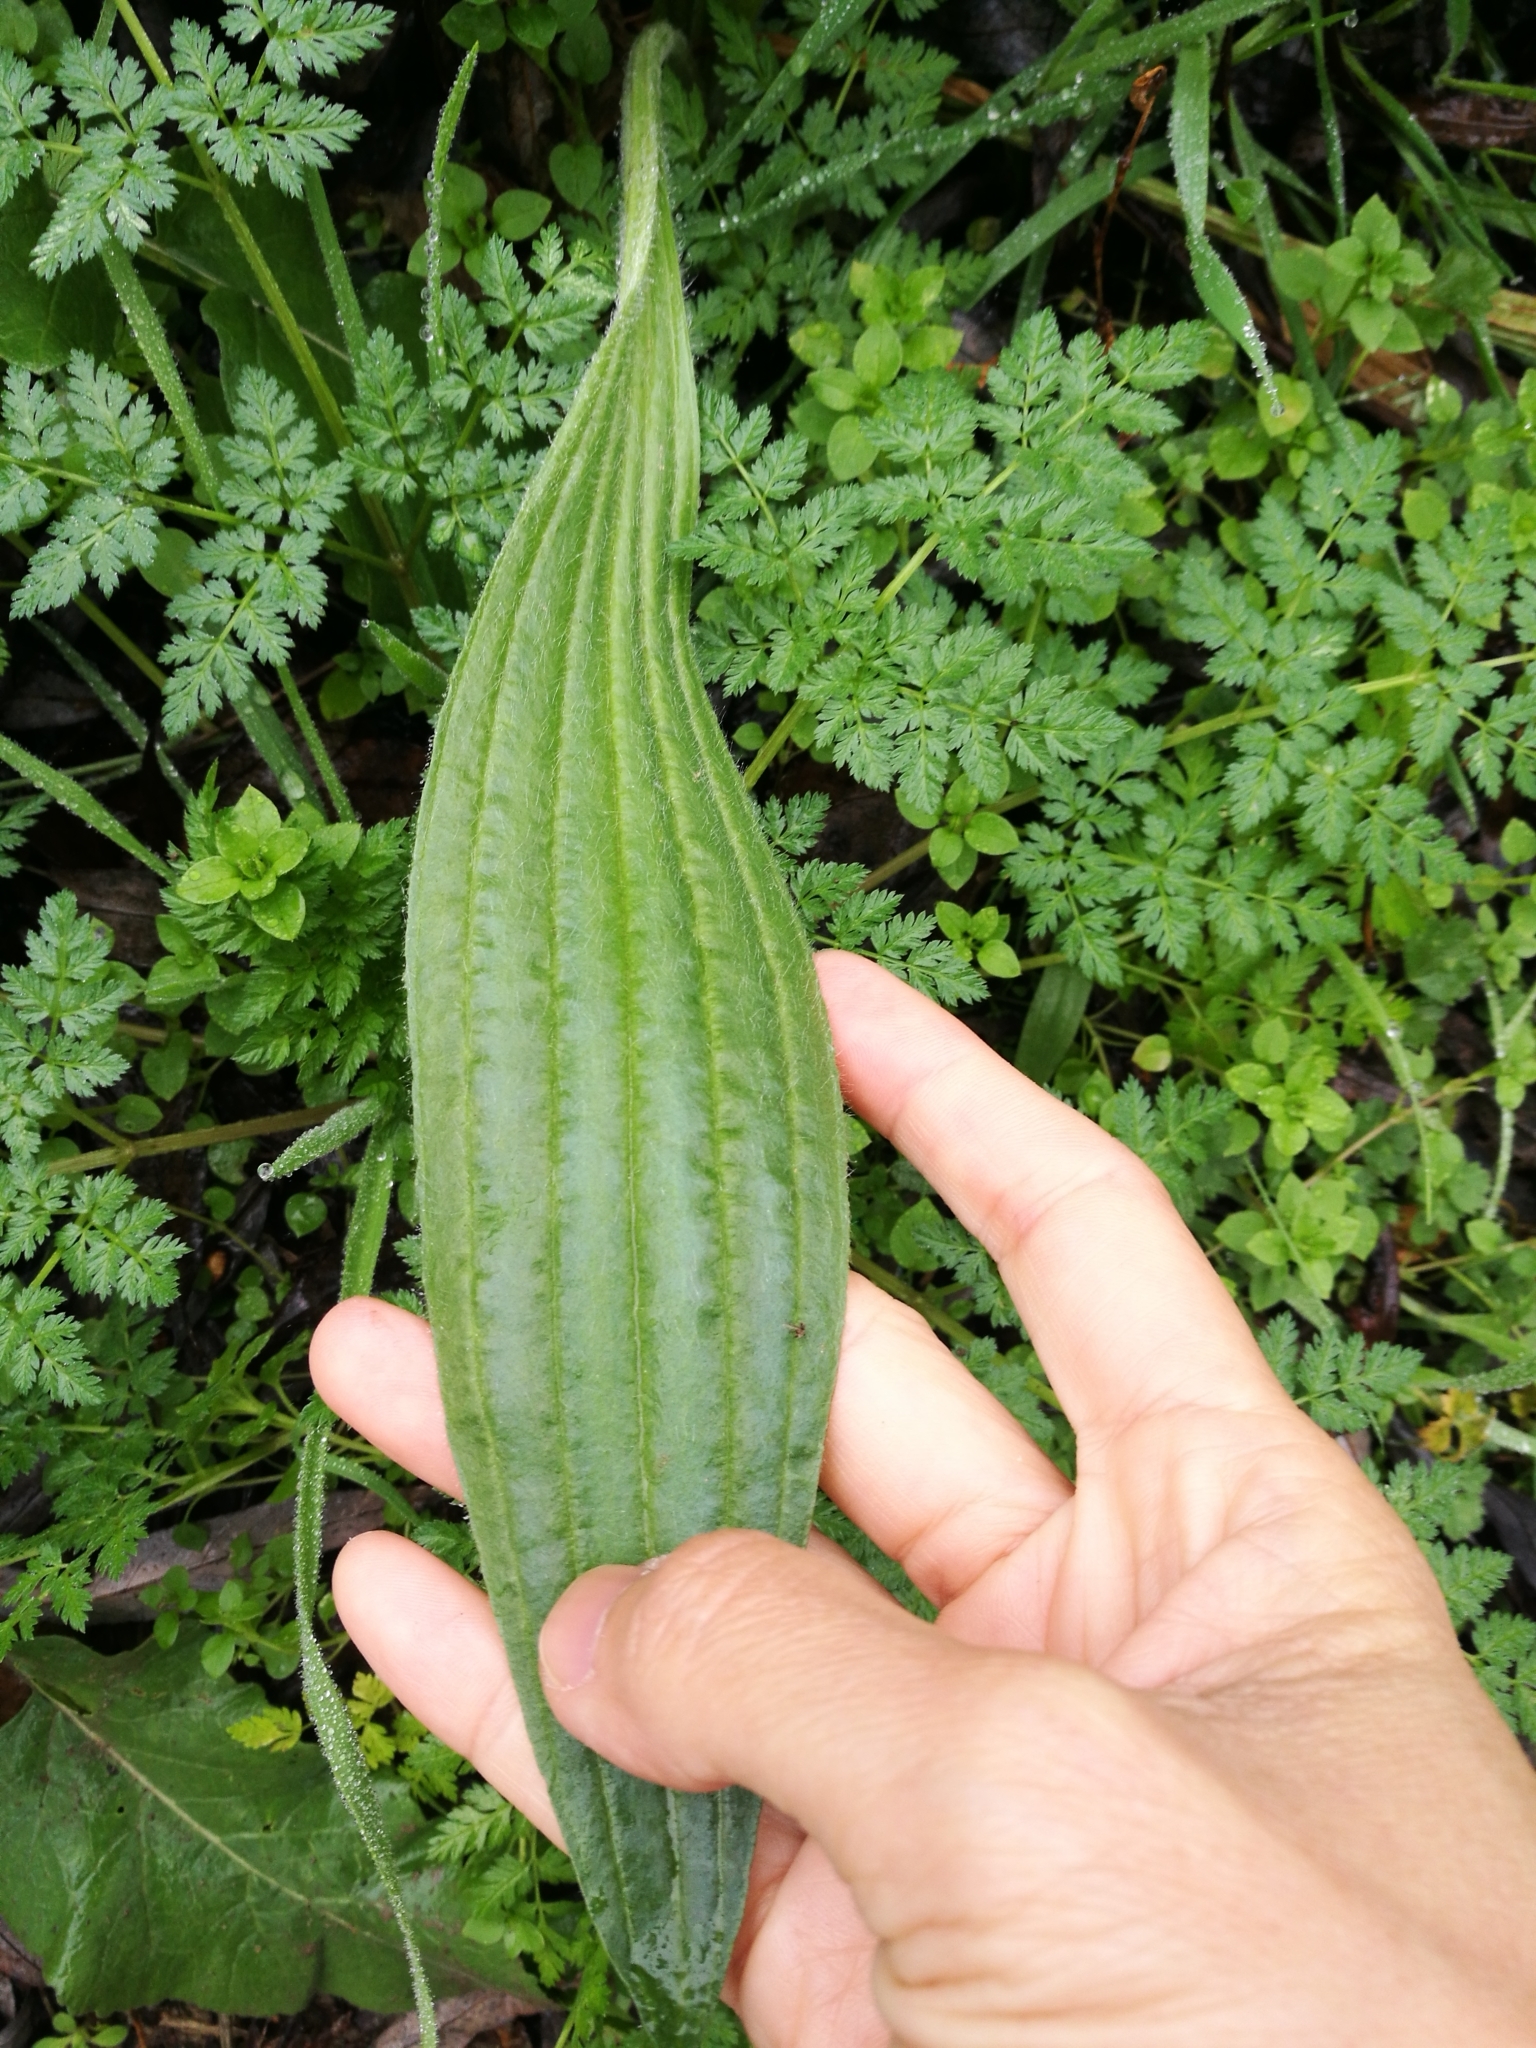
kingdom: Plantae
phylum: Tracheophyta
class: Magnoliopsida
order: Lamiales
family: Plantaginaceae
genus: Plantago
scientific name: Plantago lanceolata
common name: Ribwort plantain
